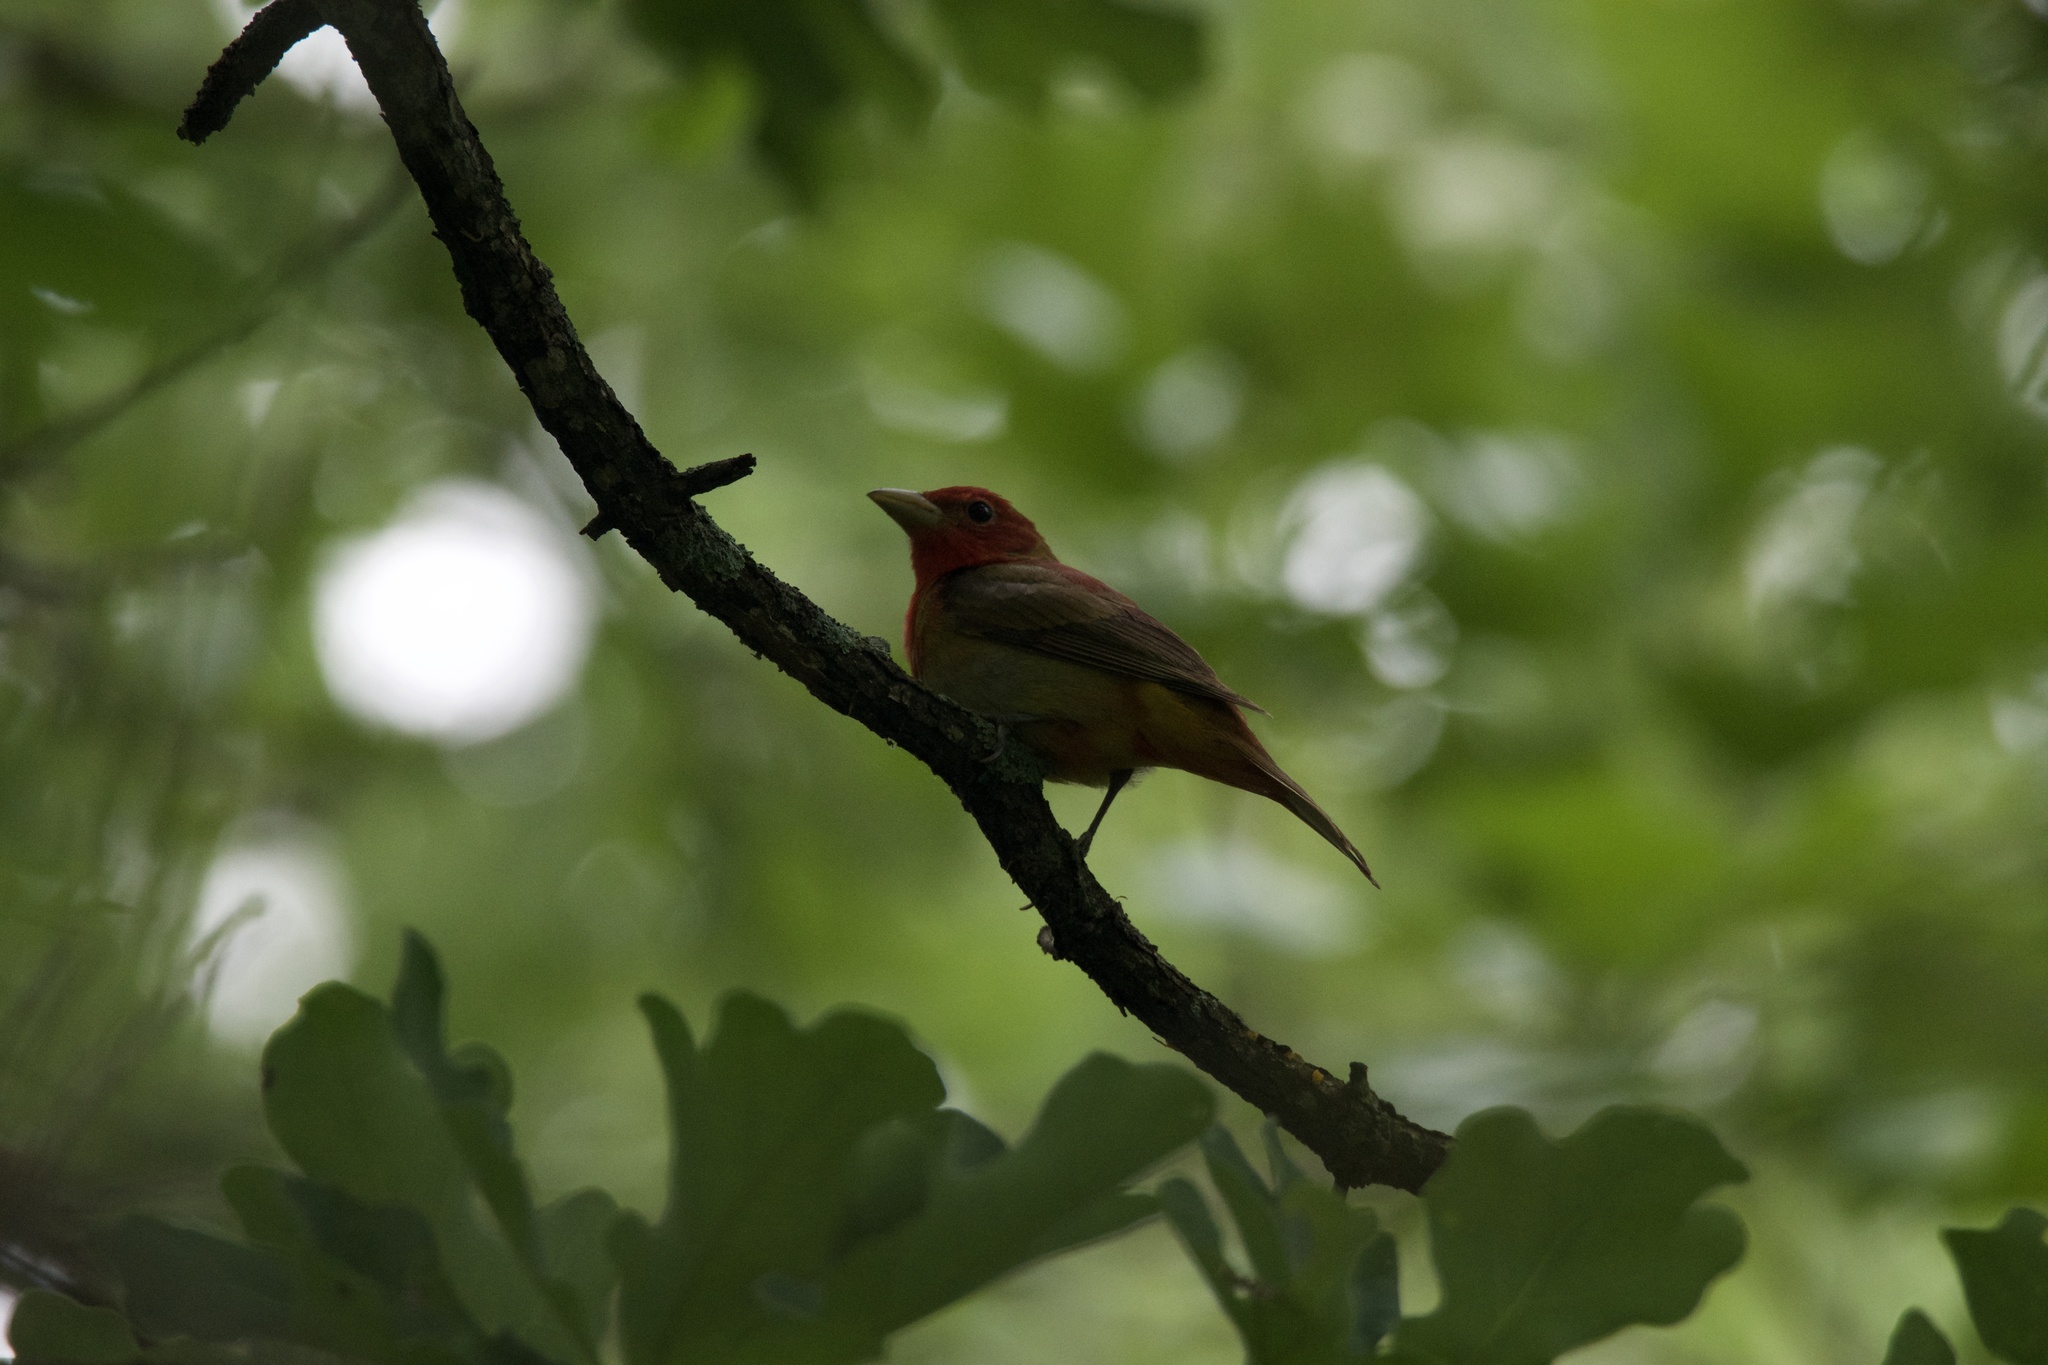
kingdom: Animalia
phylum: Chordata
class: Aves
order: Passeriformes
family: Cardinalidae
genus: Piranga
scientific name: Piranga rubra
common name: Summer tanager
